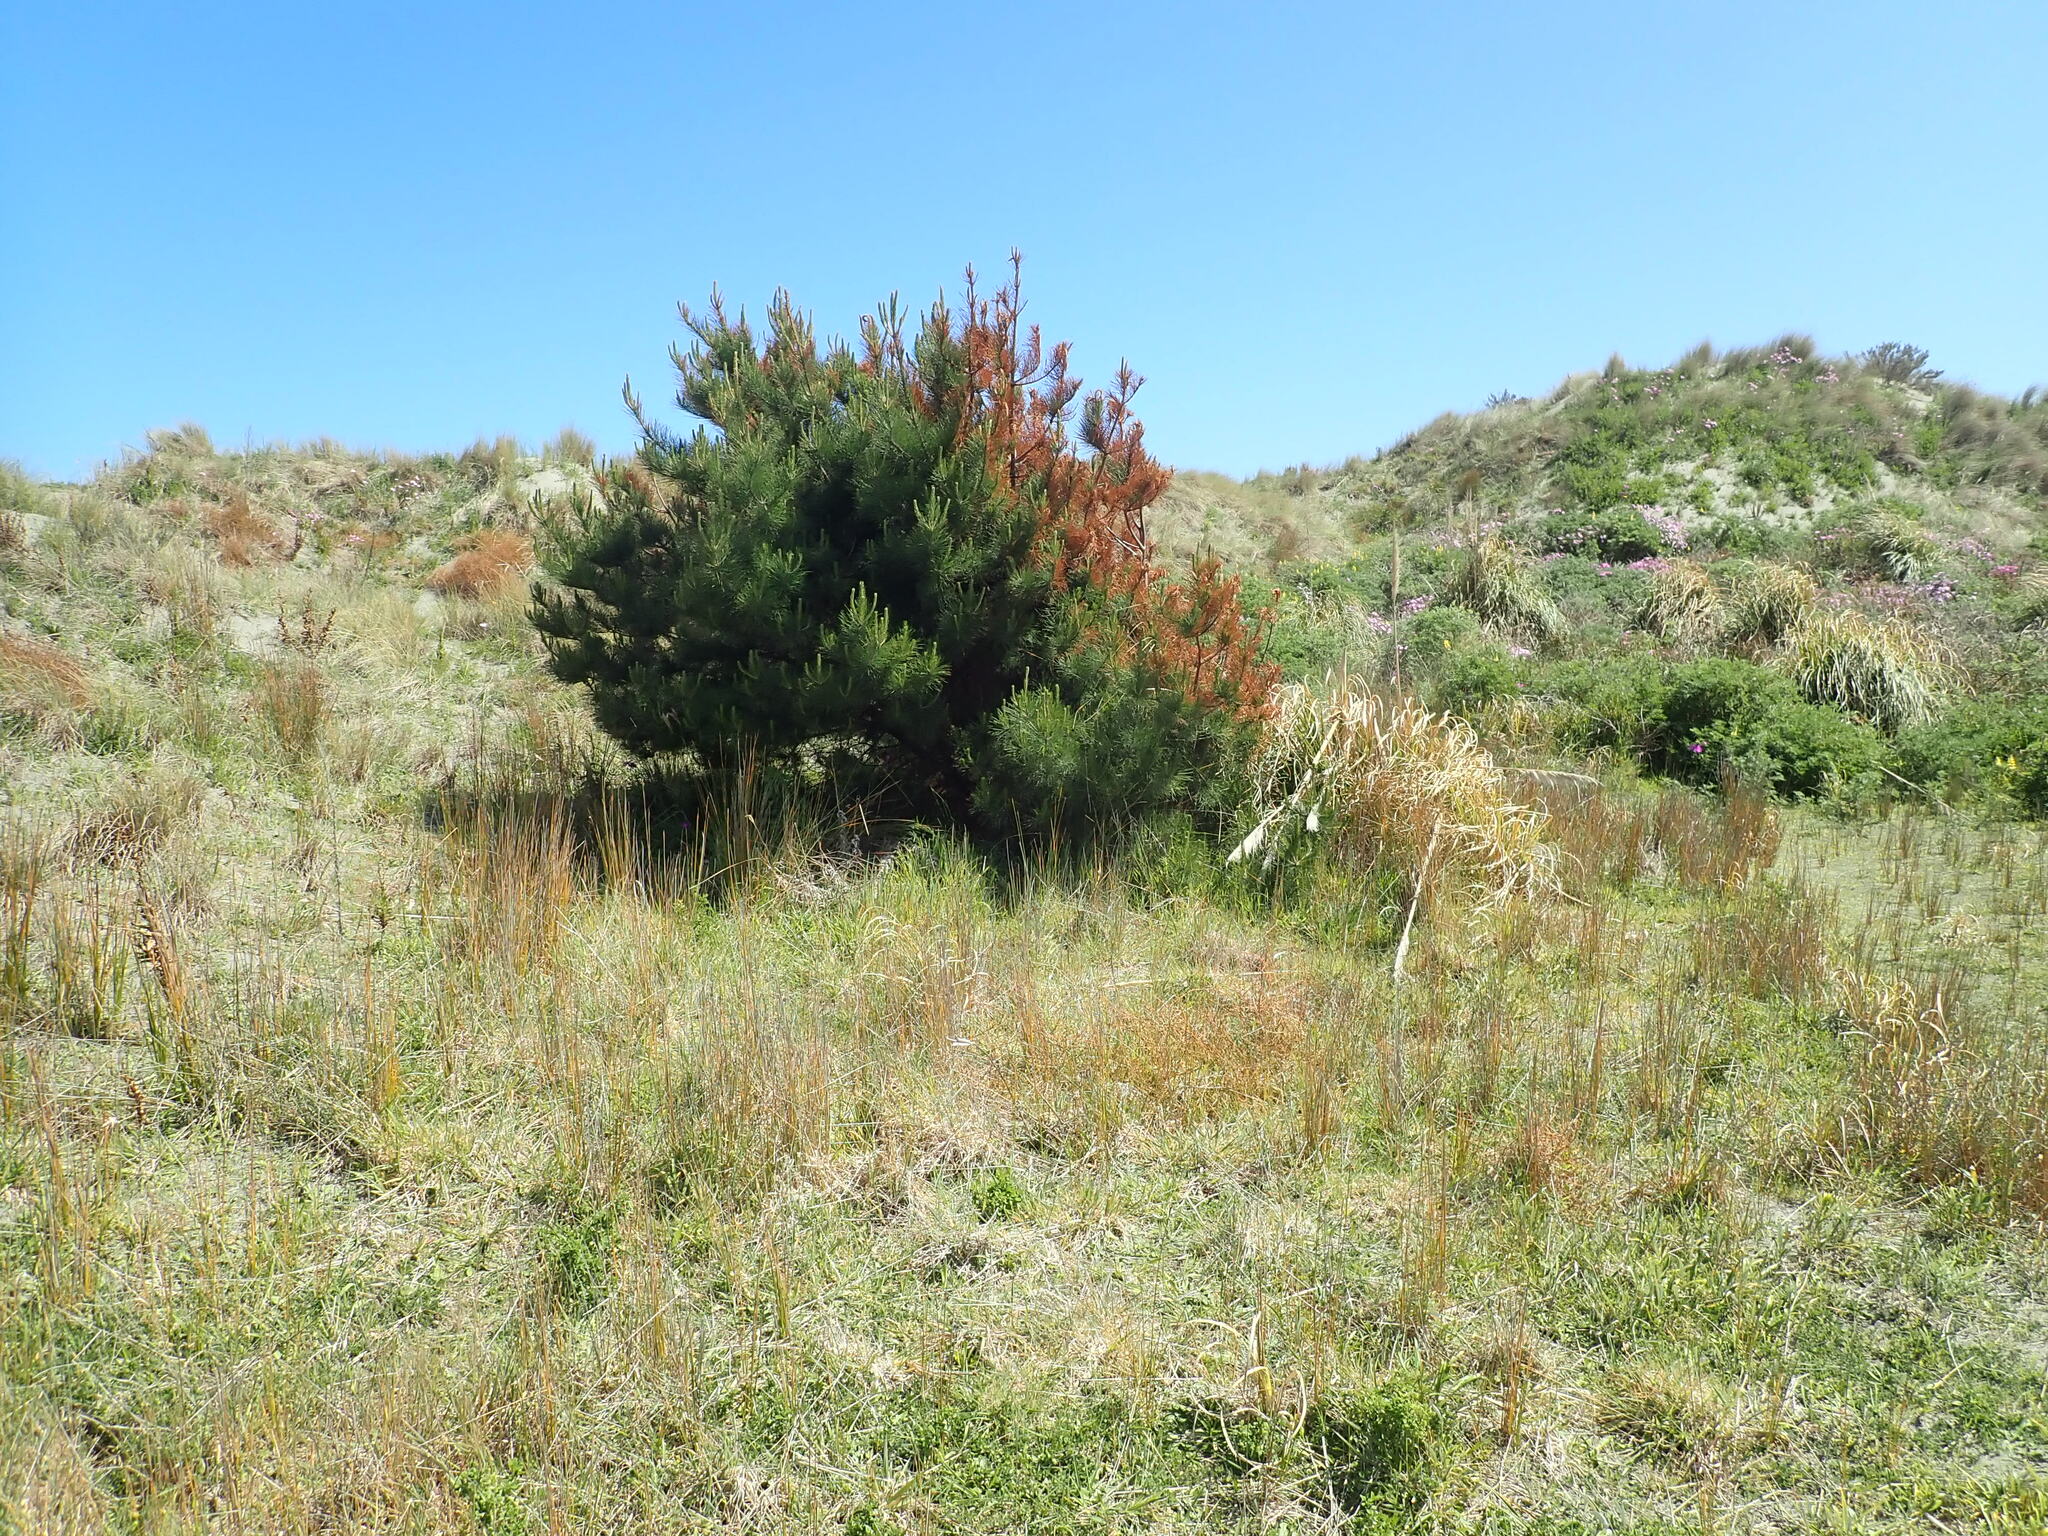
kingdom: Plantae
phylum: Tracheophyta
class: Pinopsida
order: Pinales
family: Pinaceae
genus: Pinus
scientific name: Pinus radiata
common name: Monterey pine
